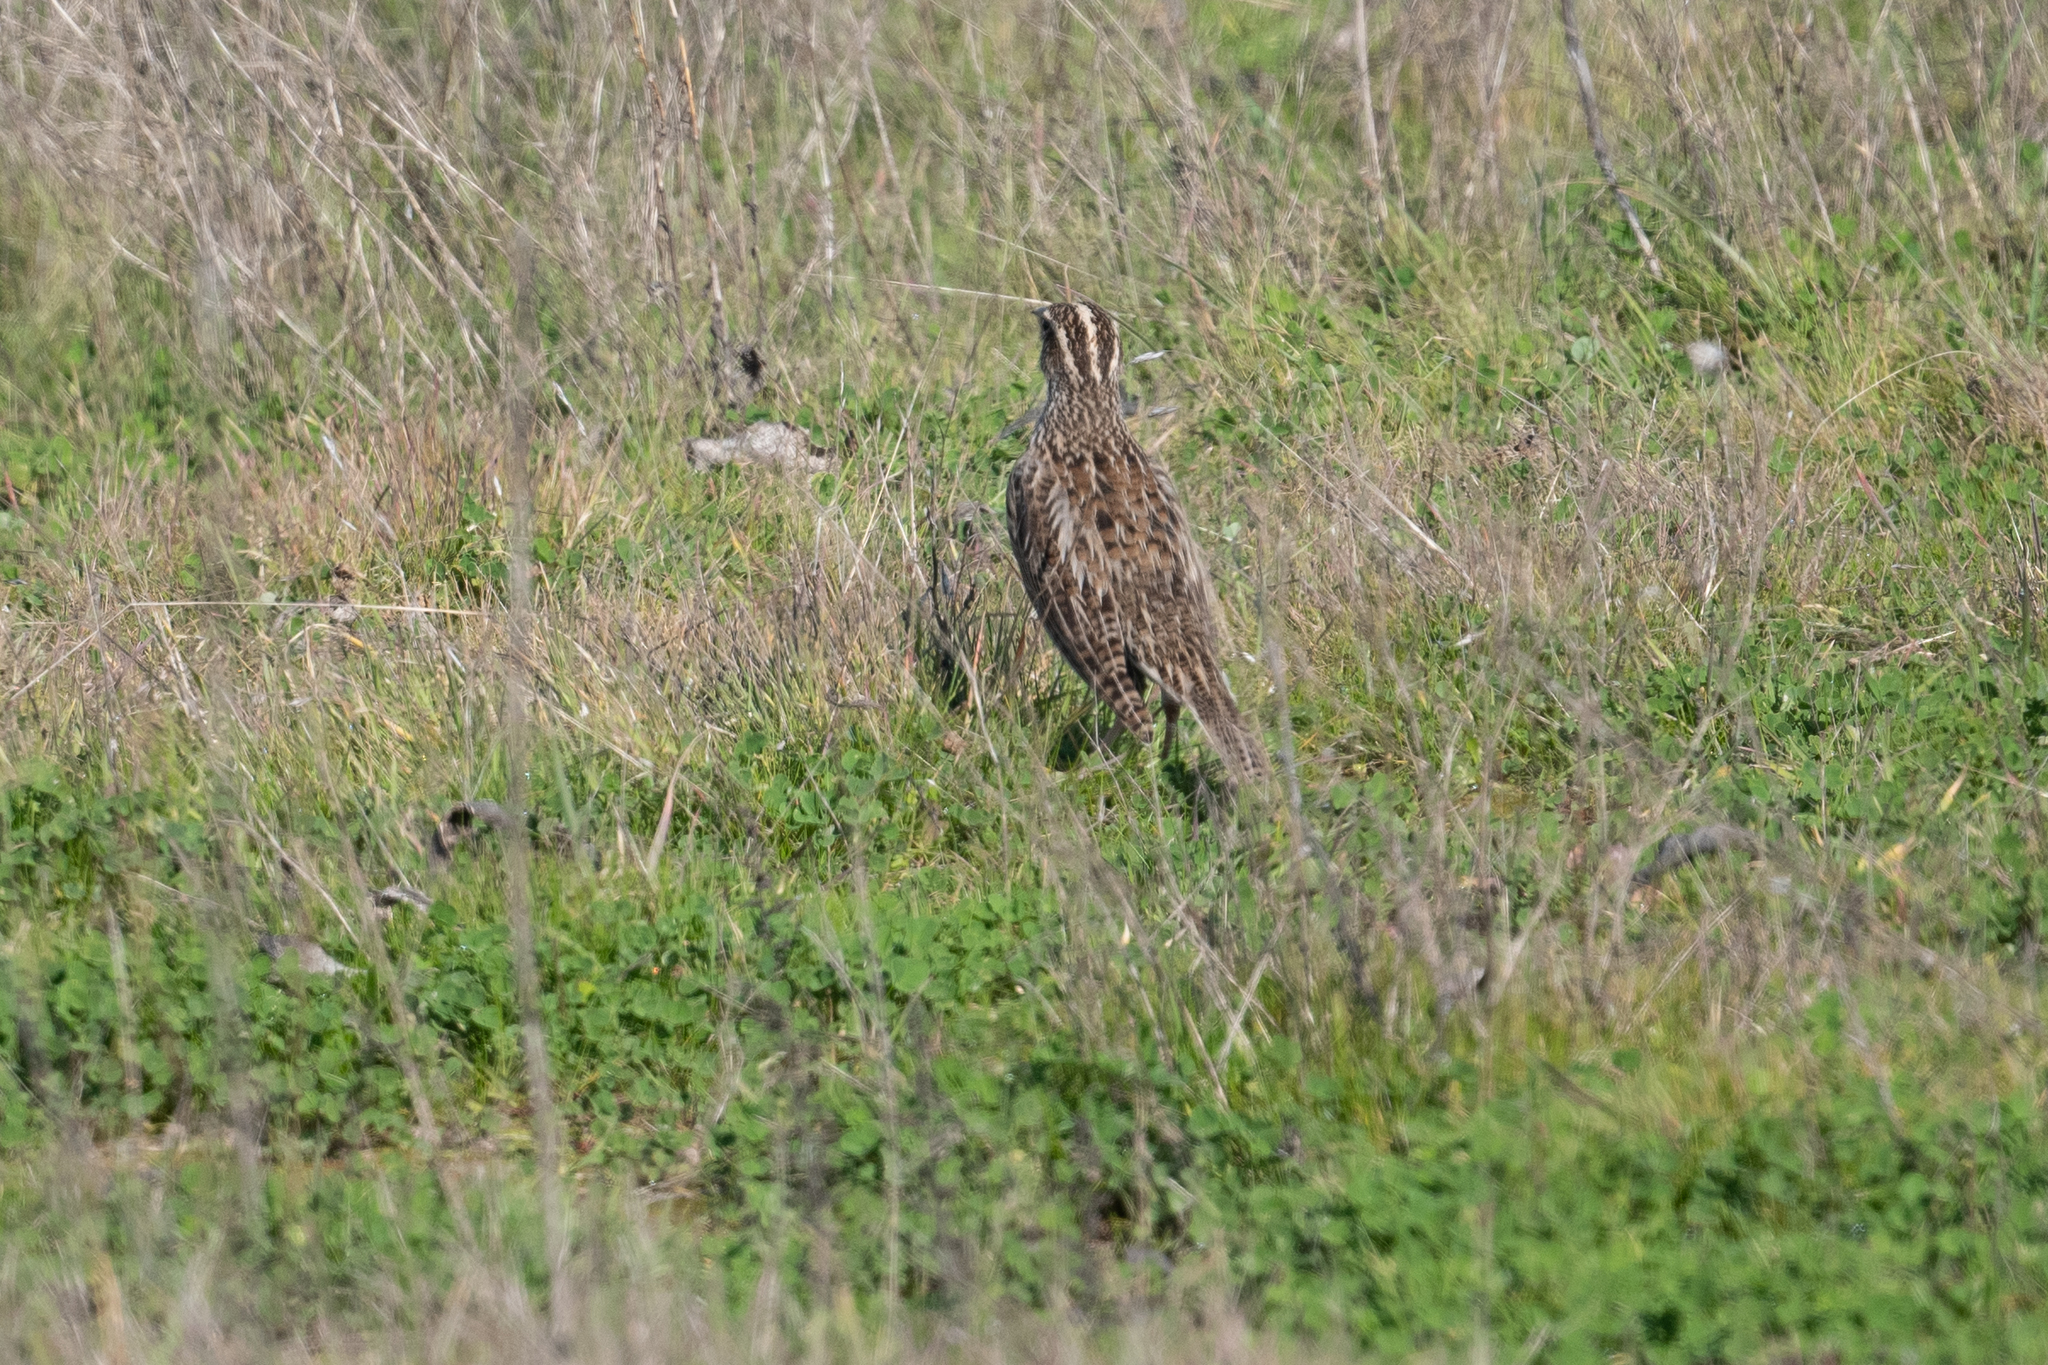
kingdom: Animalia
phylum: Chordata
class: Aves
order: Passeriformes
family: Icteridae
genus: Sturnella
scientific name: Sturnella neglecta
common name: Western meadowlark
